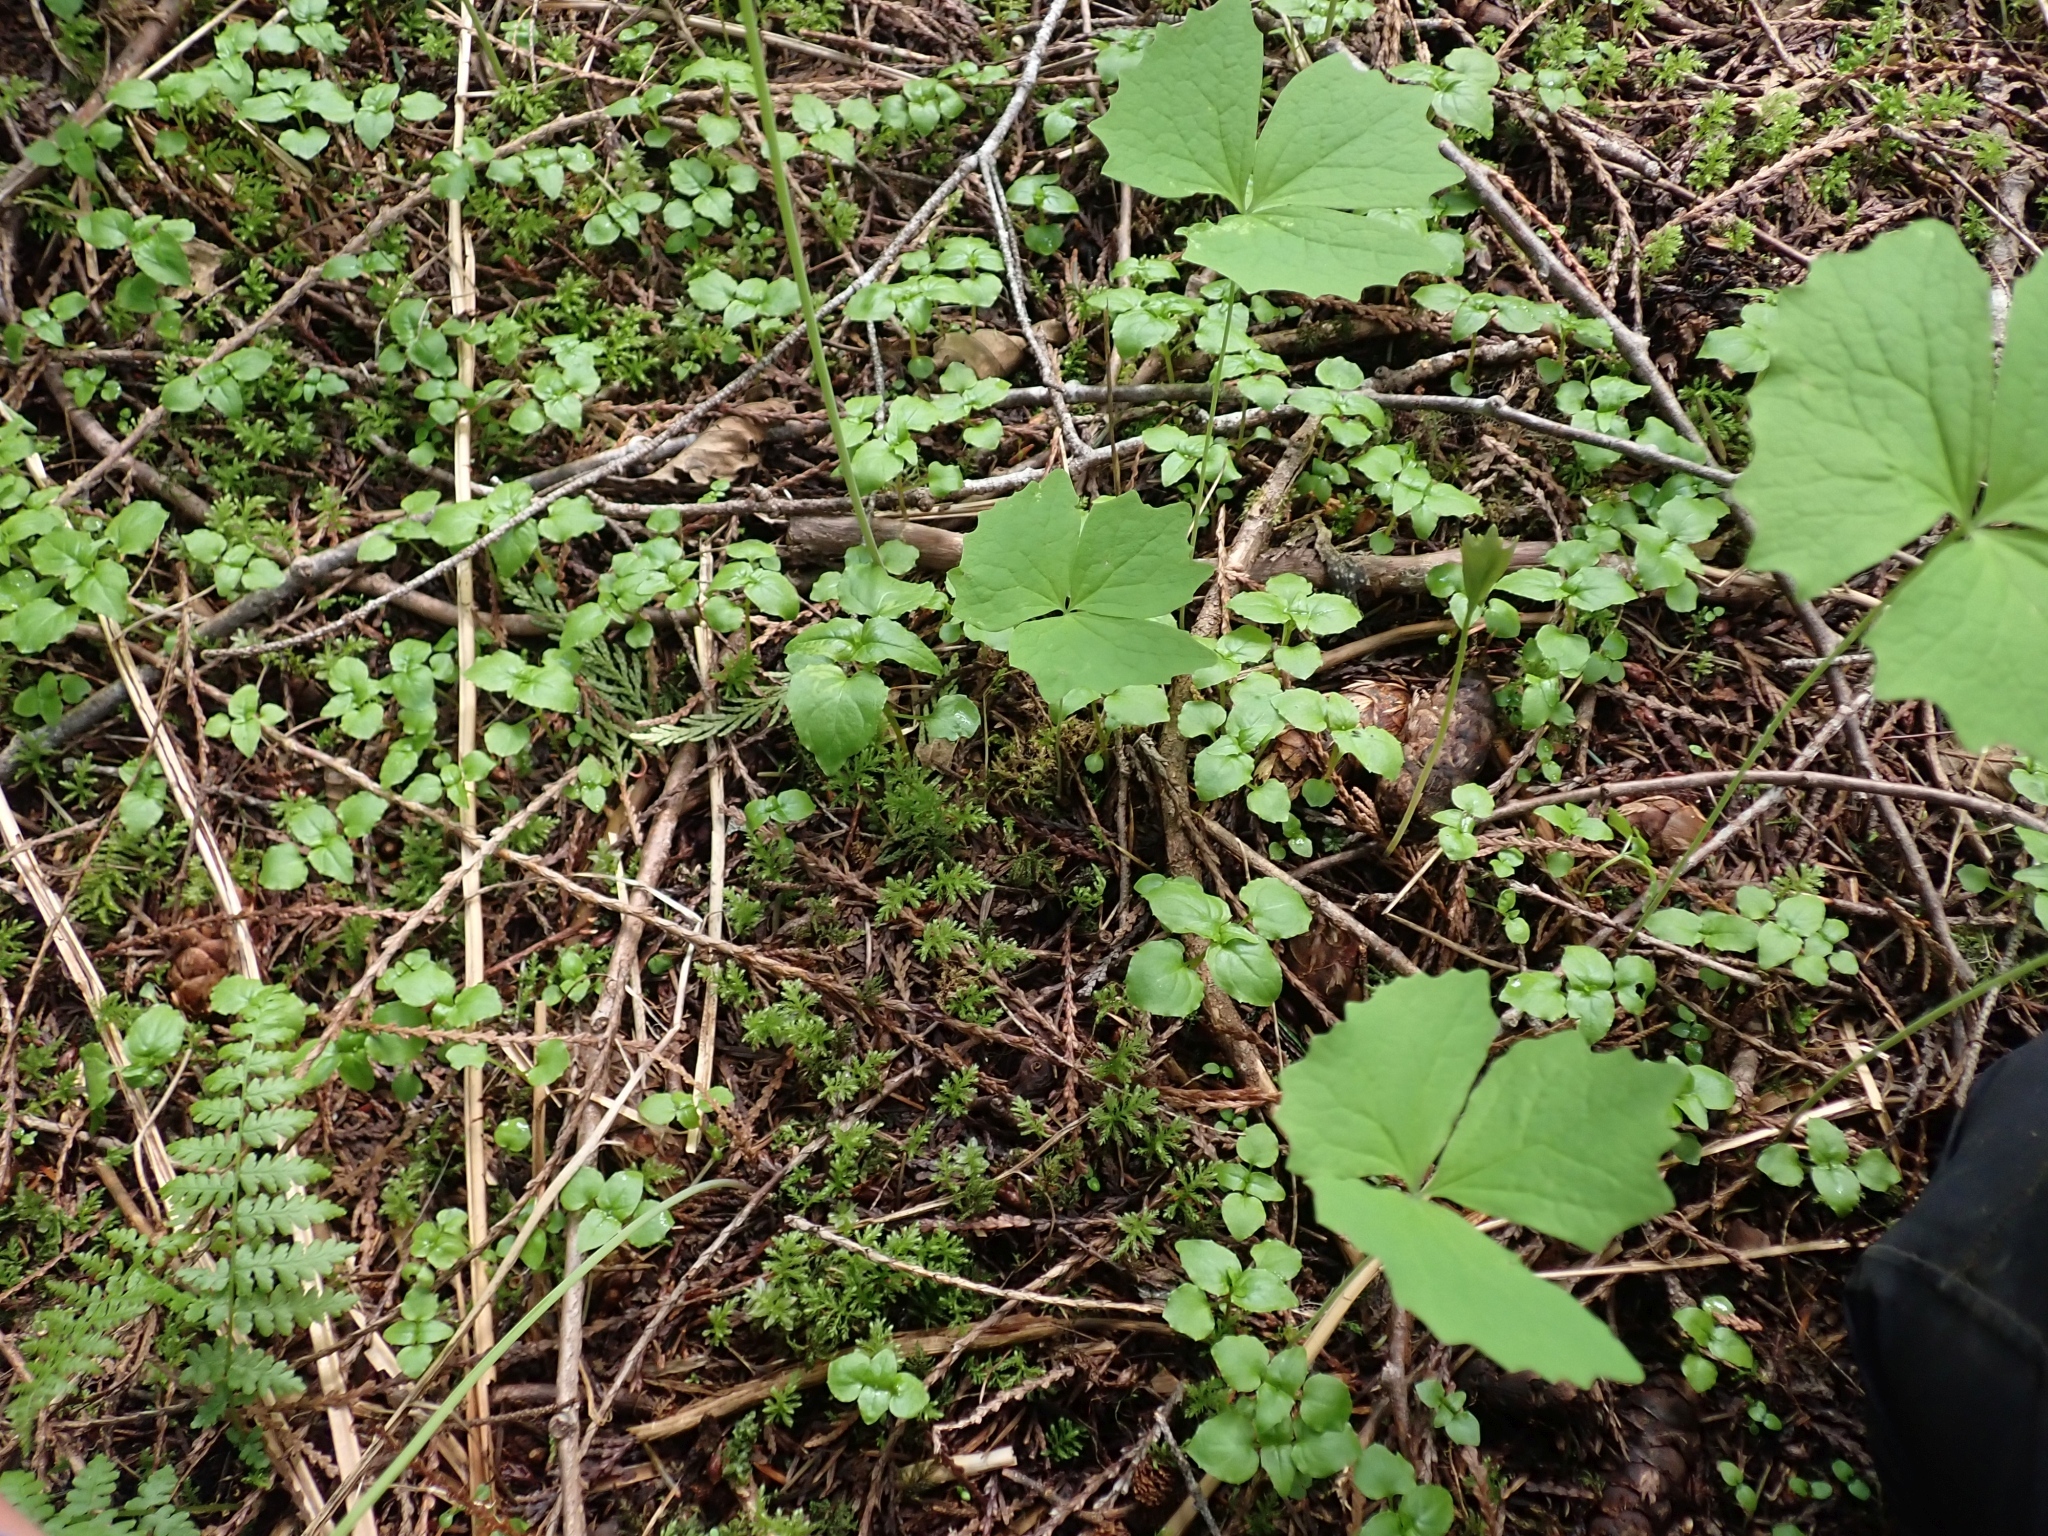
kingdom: Plantae
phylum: Tracheophyta
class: Magnoliopsida
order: Ranunculales
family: Berberidaceae
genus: Achlys
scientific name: Achlys triphylla
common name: Vanilla-leaf
